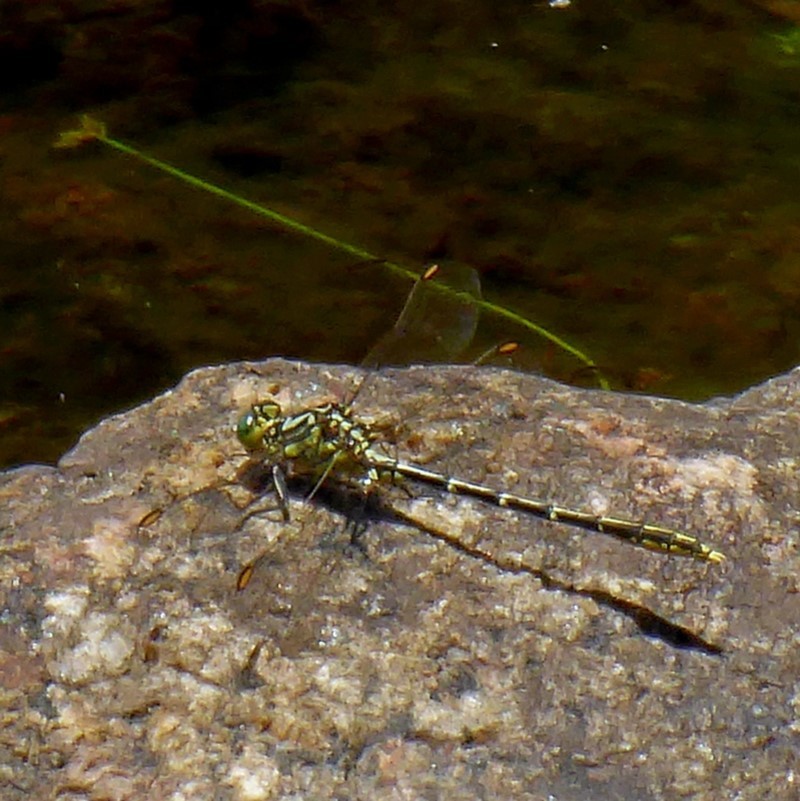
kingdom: Animalia
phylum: Arthropoda
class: Insecta
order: Odonata
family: Gomphidae
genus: Austrogomphus
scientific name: Austrogomphus guerini
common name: Yellow-striped hunter
